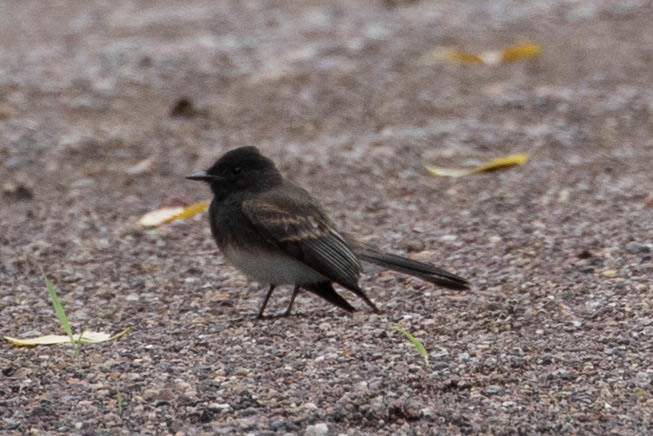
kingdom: Animalia
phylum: Chordata
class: Aves
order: Passeriformes
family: Tyrannidae
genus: Sayornis
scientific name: Sayornis nigricans
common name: Black phoebe
